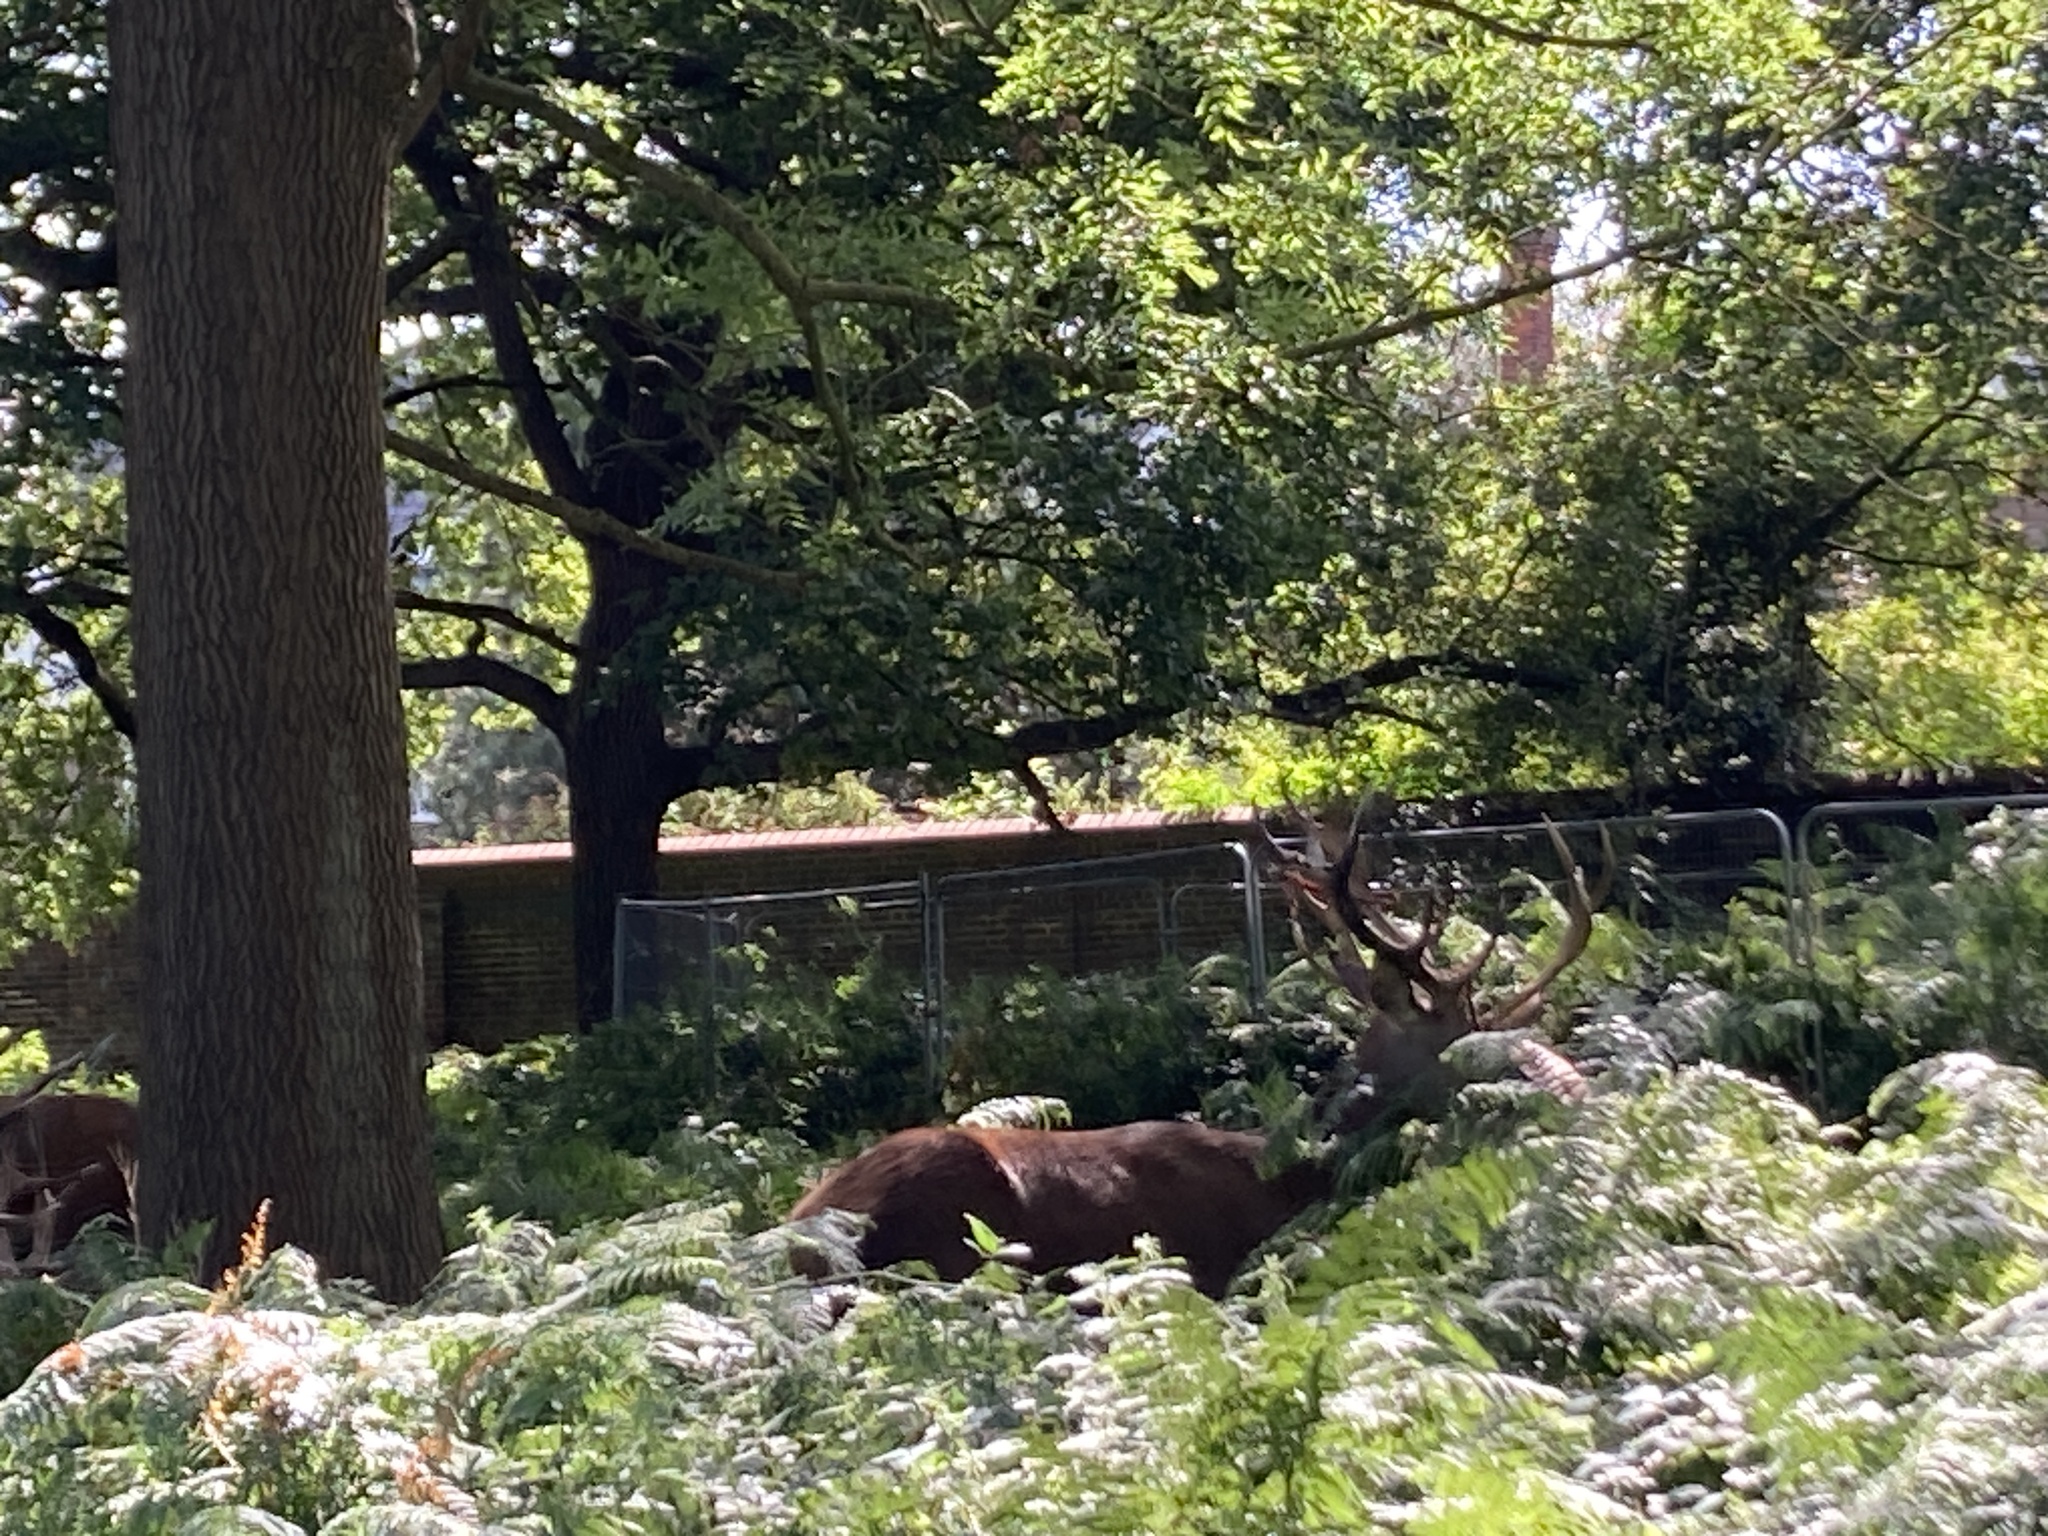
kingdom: Animalia
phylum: Chordata
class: Mammalia
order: Artiodactyla
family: Cervidae
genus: Cervus
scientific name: Cervus elaphus
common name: Red deer
